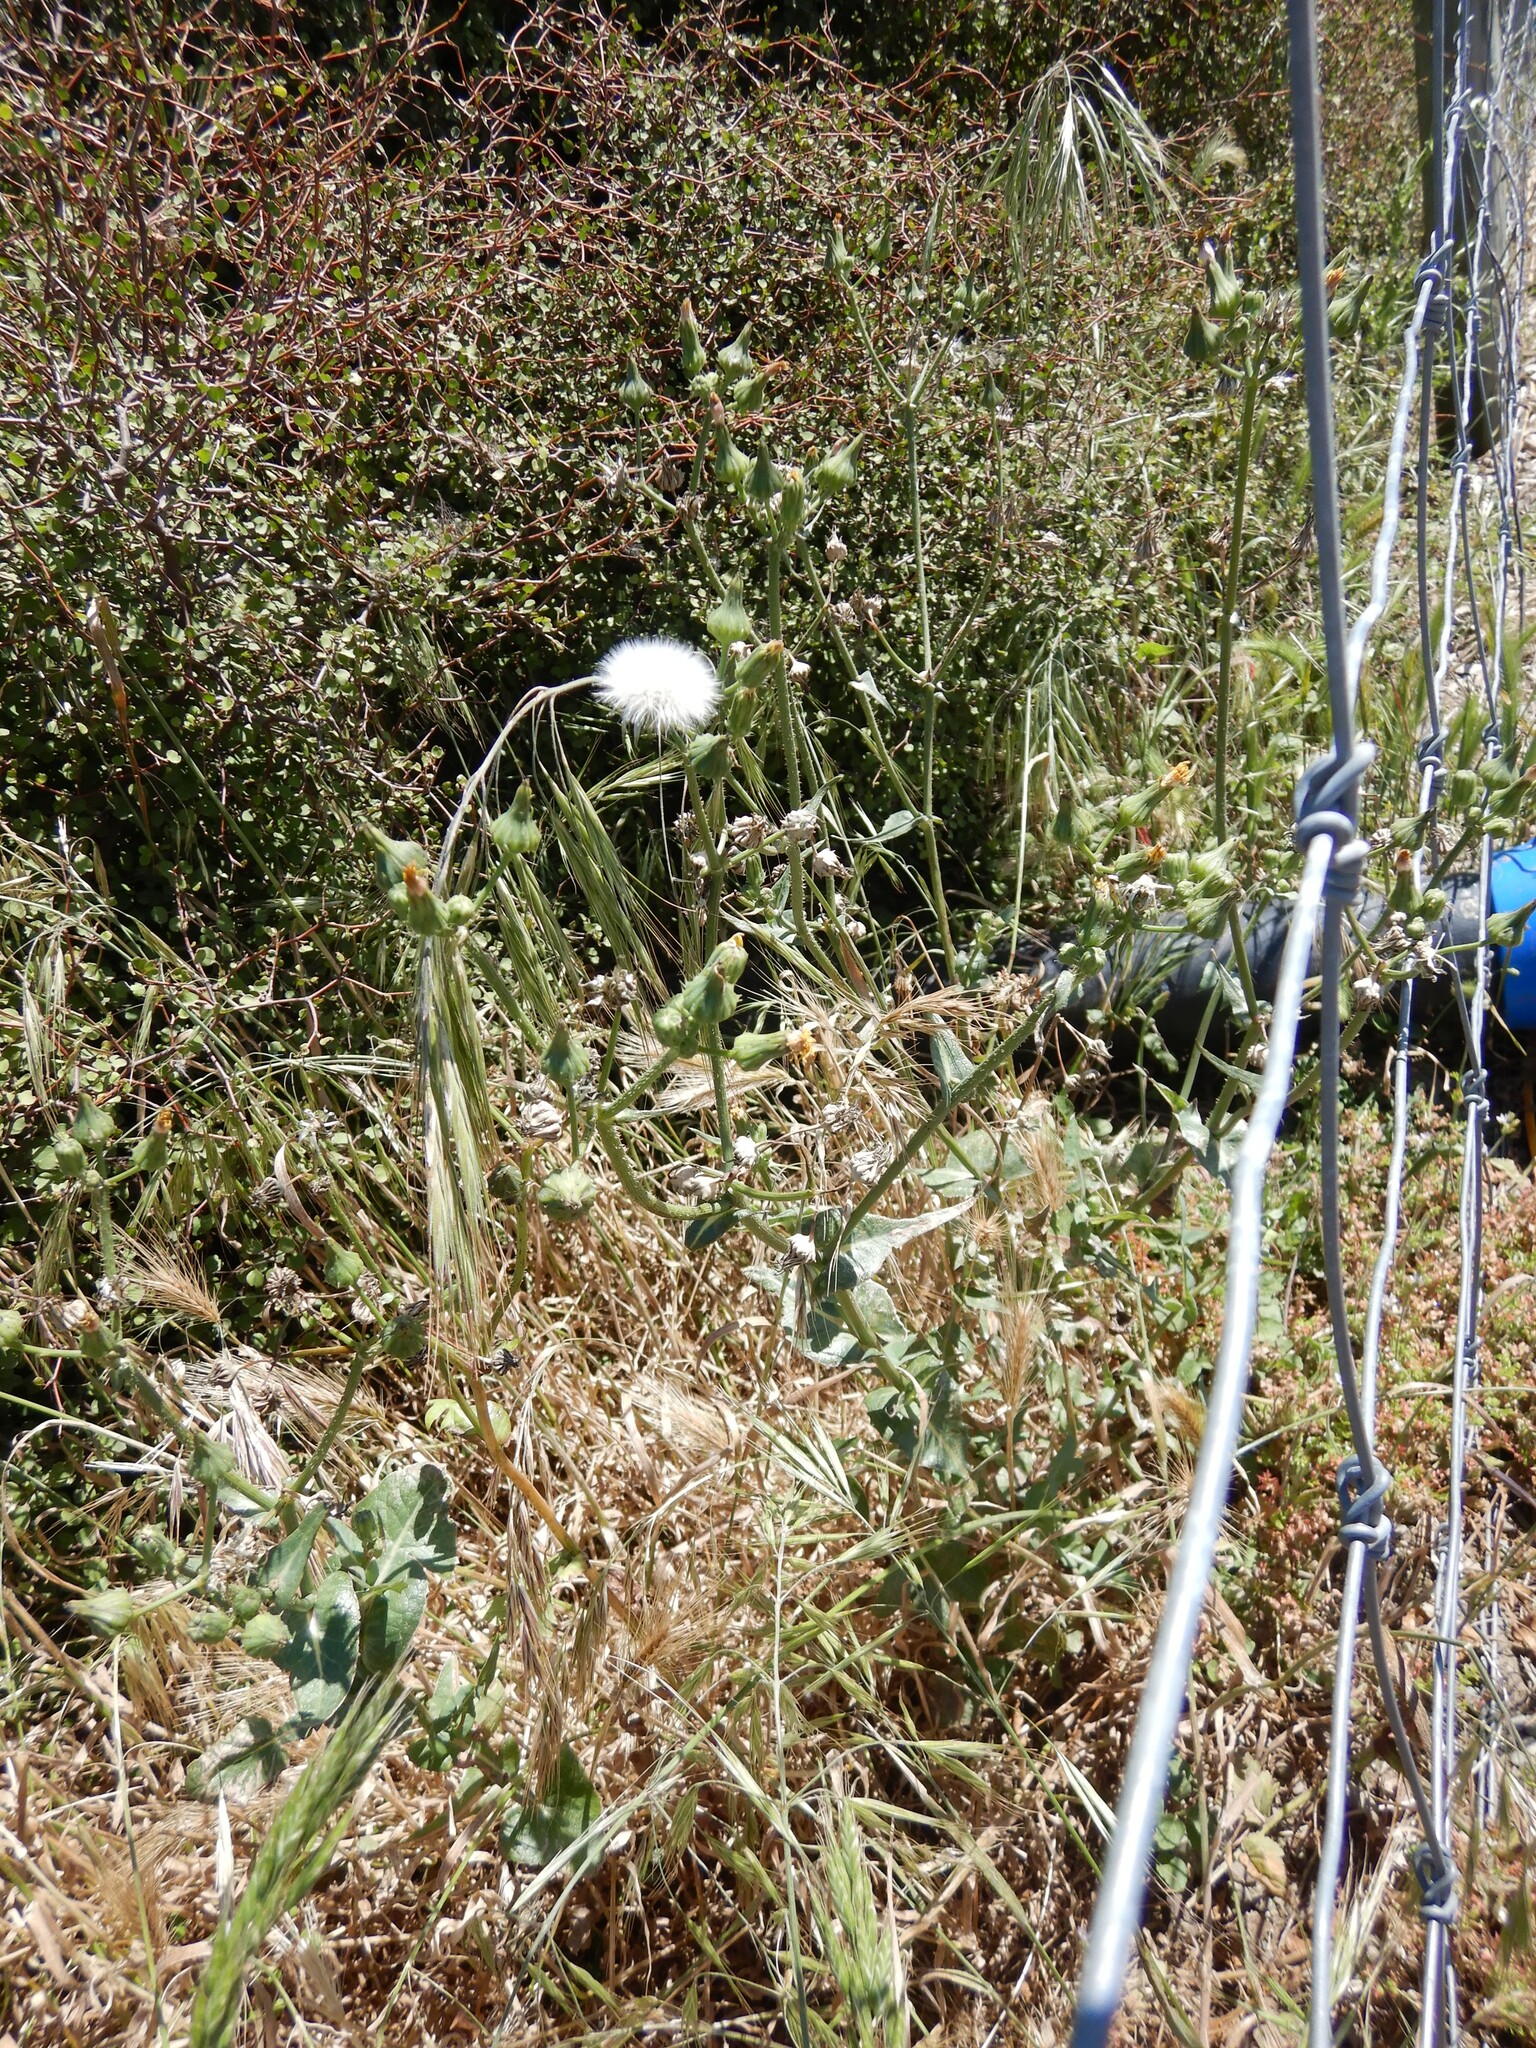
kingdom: Plantae
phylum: Tracheophyta
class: Magnoliopsida
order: Asterales
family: Asteraceae
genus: Sonchus
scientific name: Sonchus oleraceus
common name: Common sowthistle
